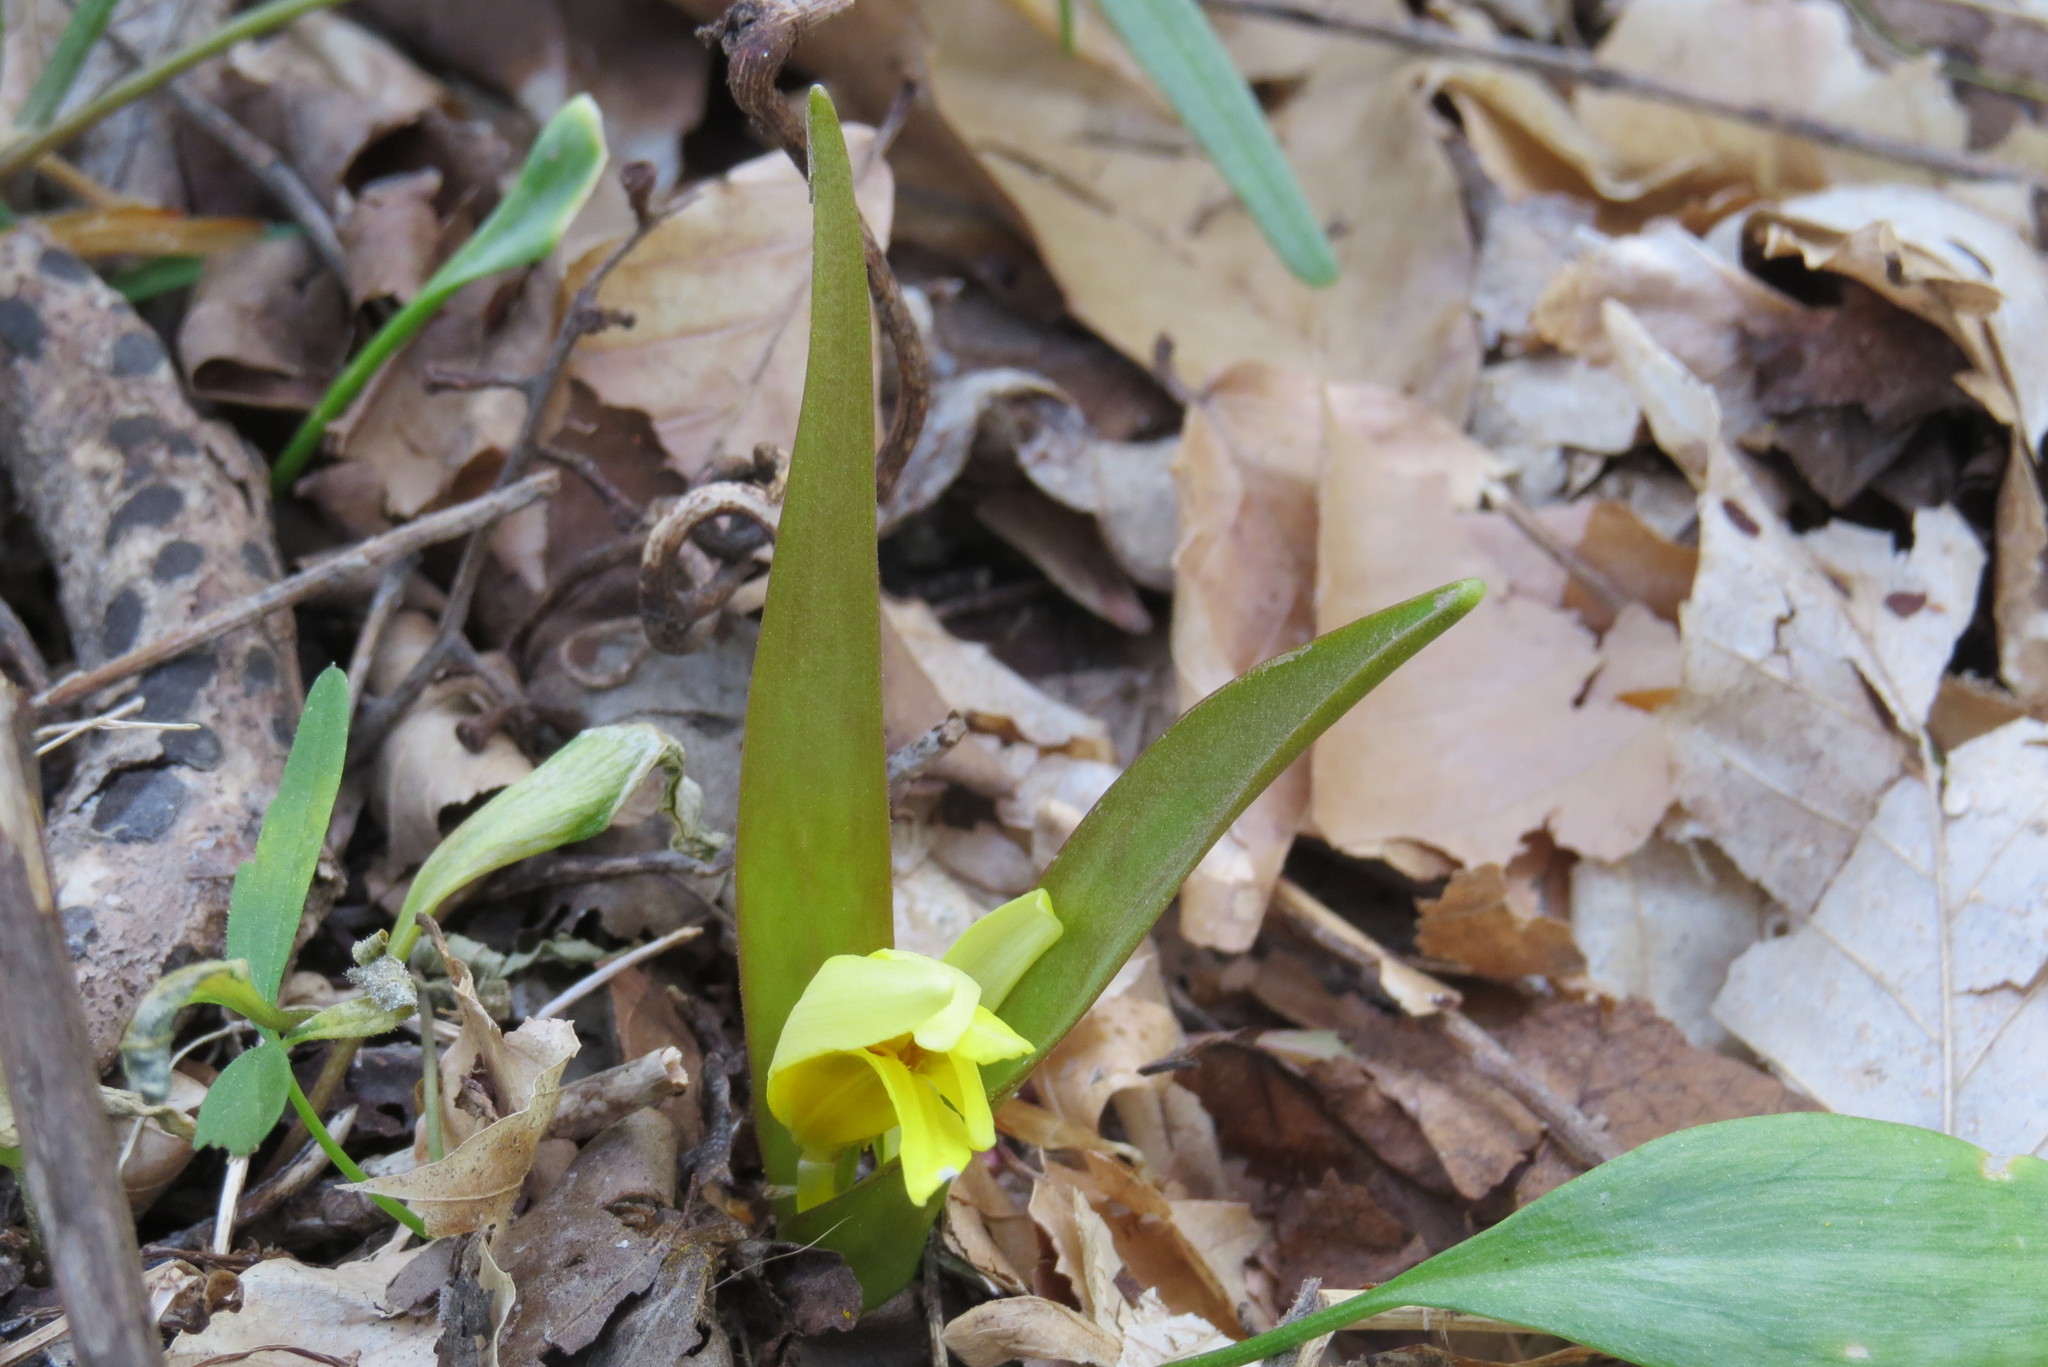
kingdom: Plantae
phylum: Tracheophyta
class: Liliopsida
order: Liliales
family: Liliaceae
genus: Erythronium
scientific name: Erythronium americanum
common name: Yellow adder's-tongue
